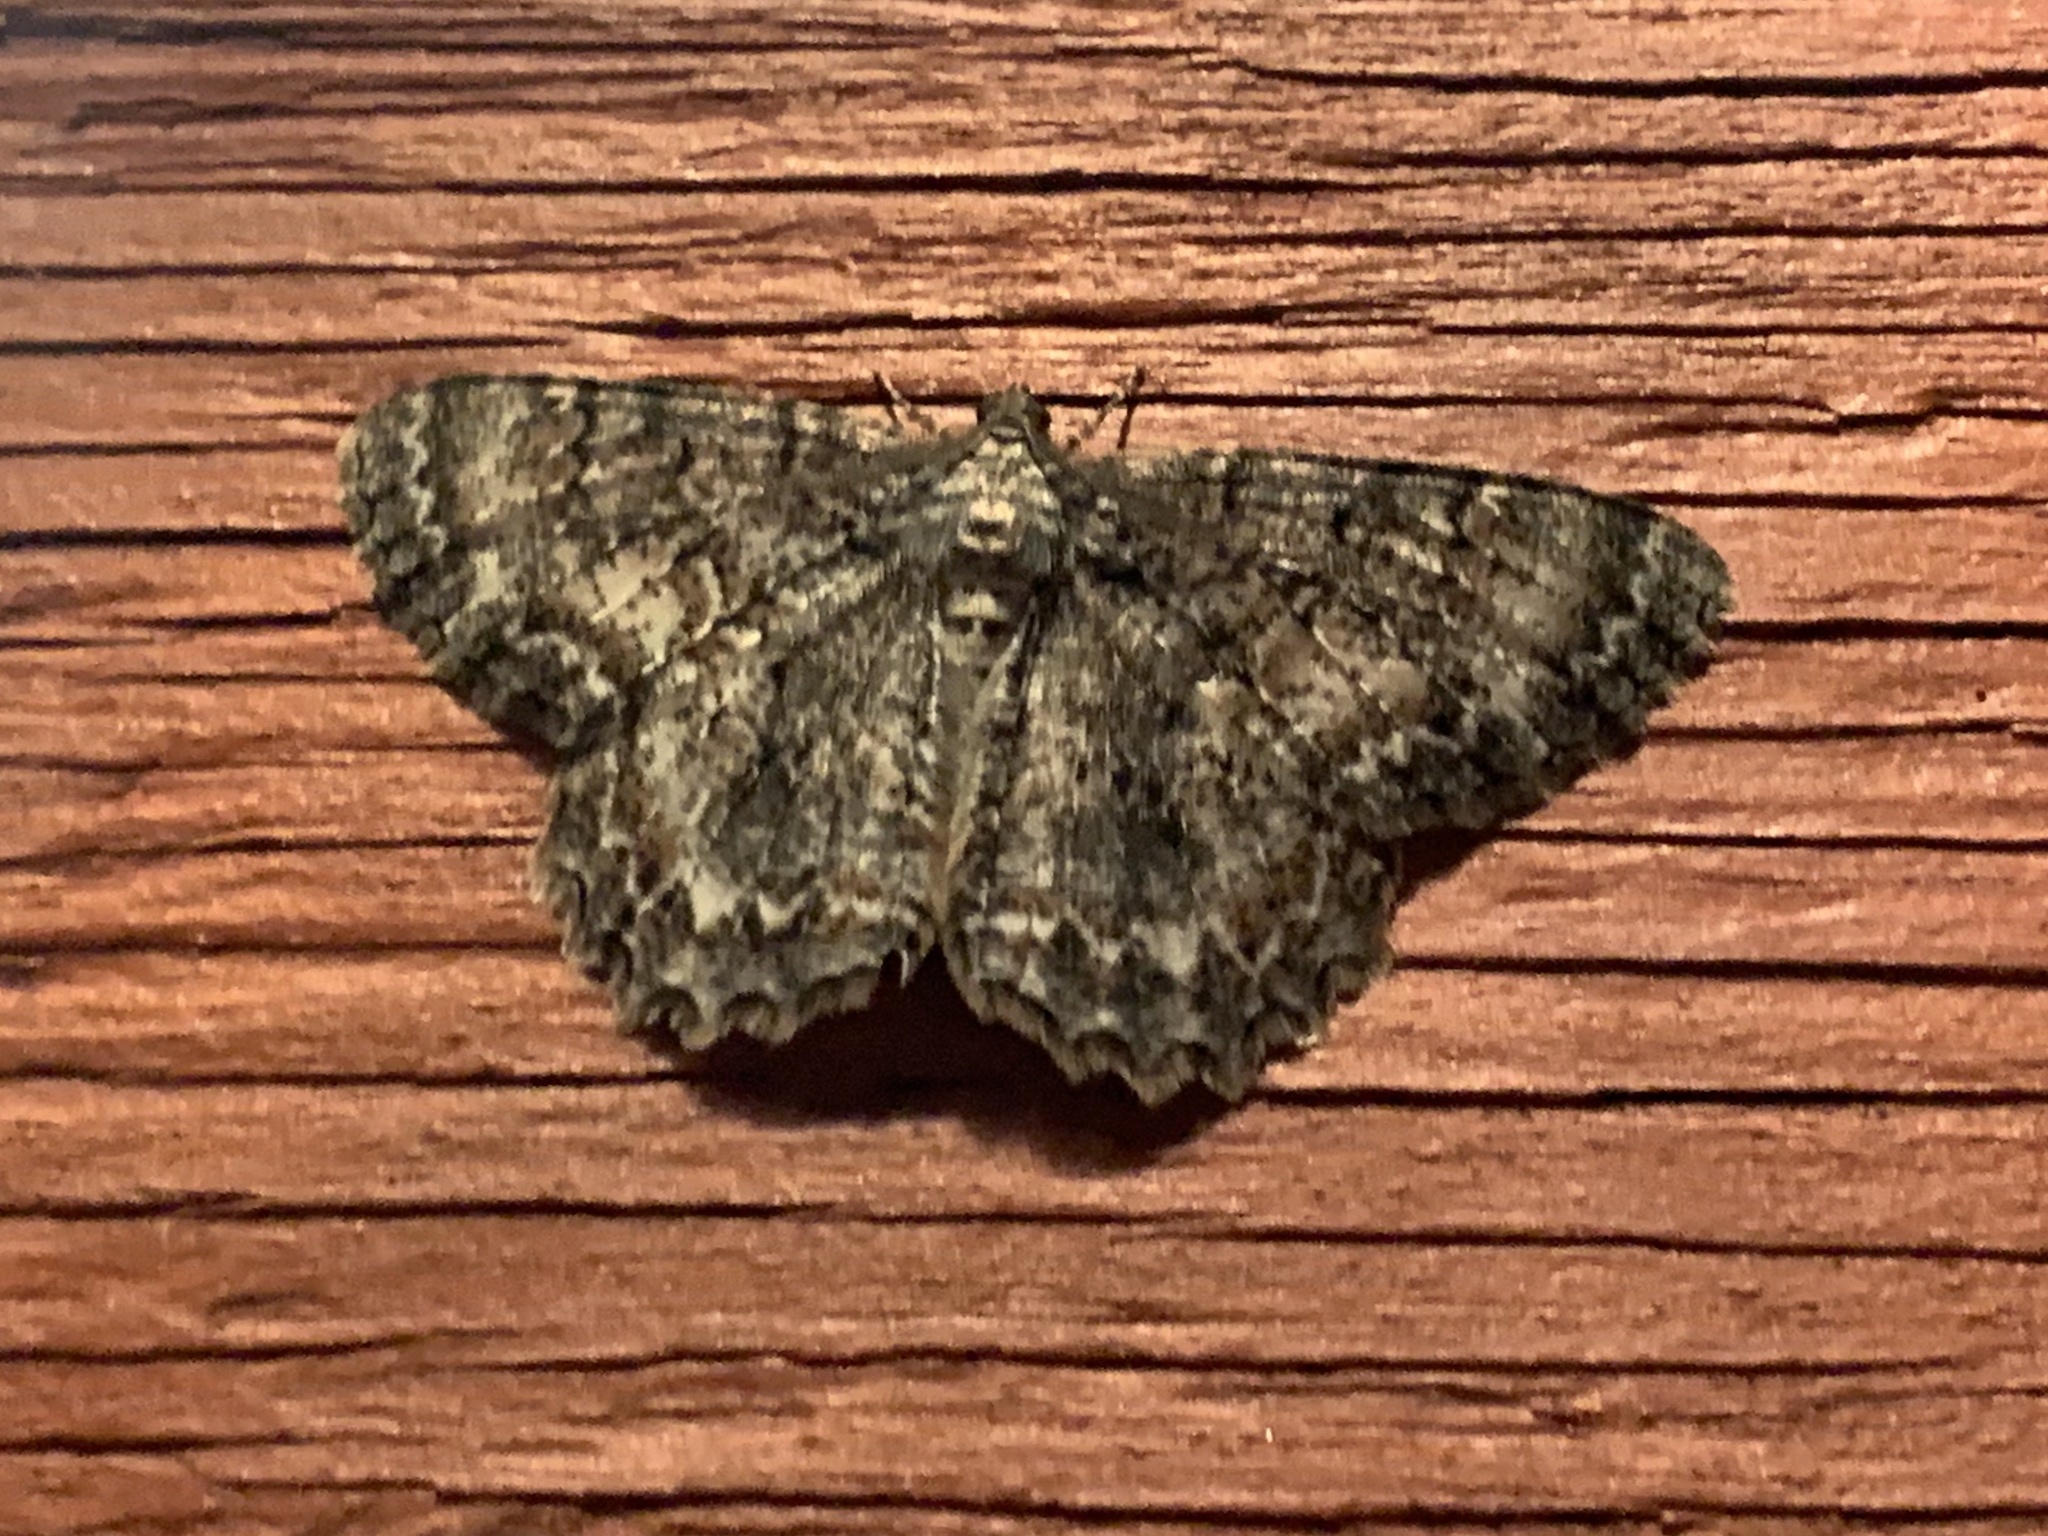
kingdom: Animalia
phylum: Arthropoda
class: Insecta
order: Lepidoptera
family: Geometridae
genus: Epimecis
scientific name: Epimecis hortaria
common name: Tulip-tree beauty
